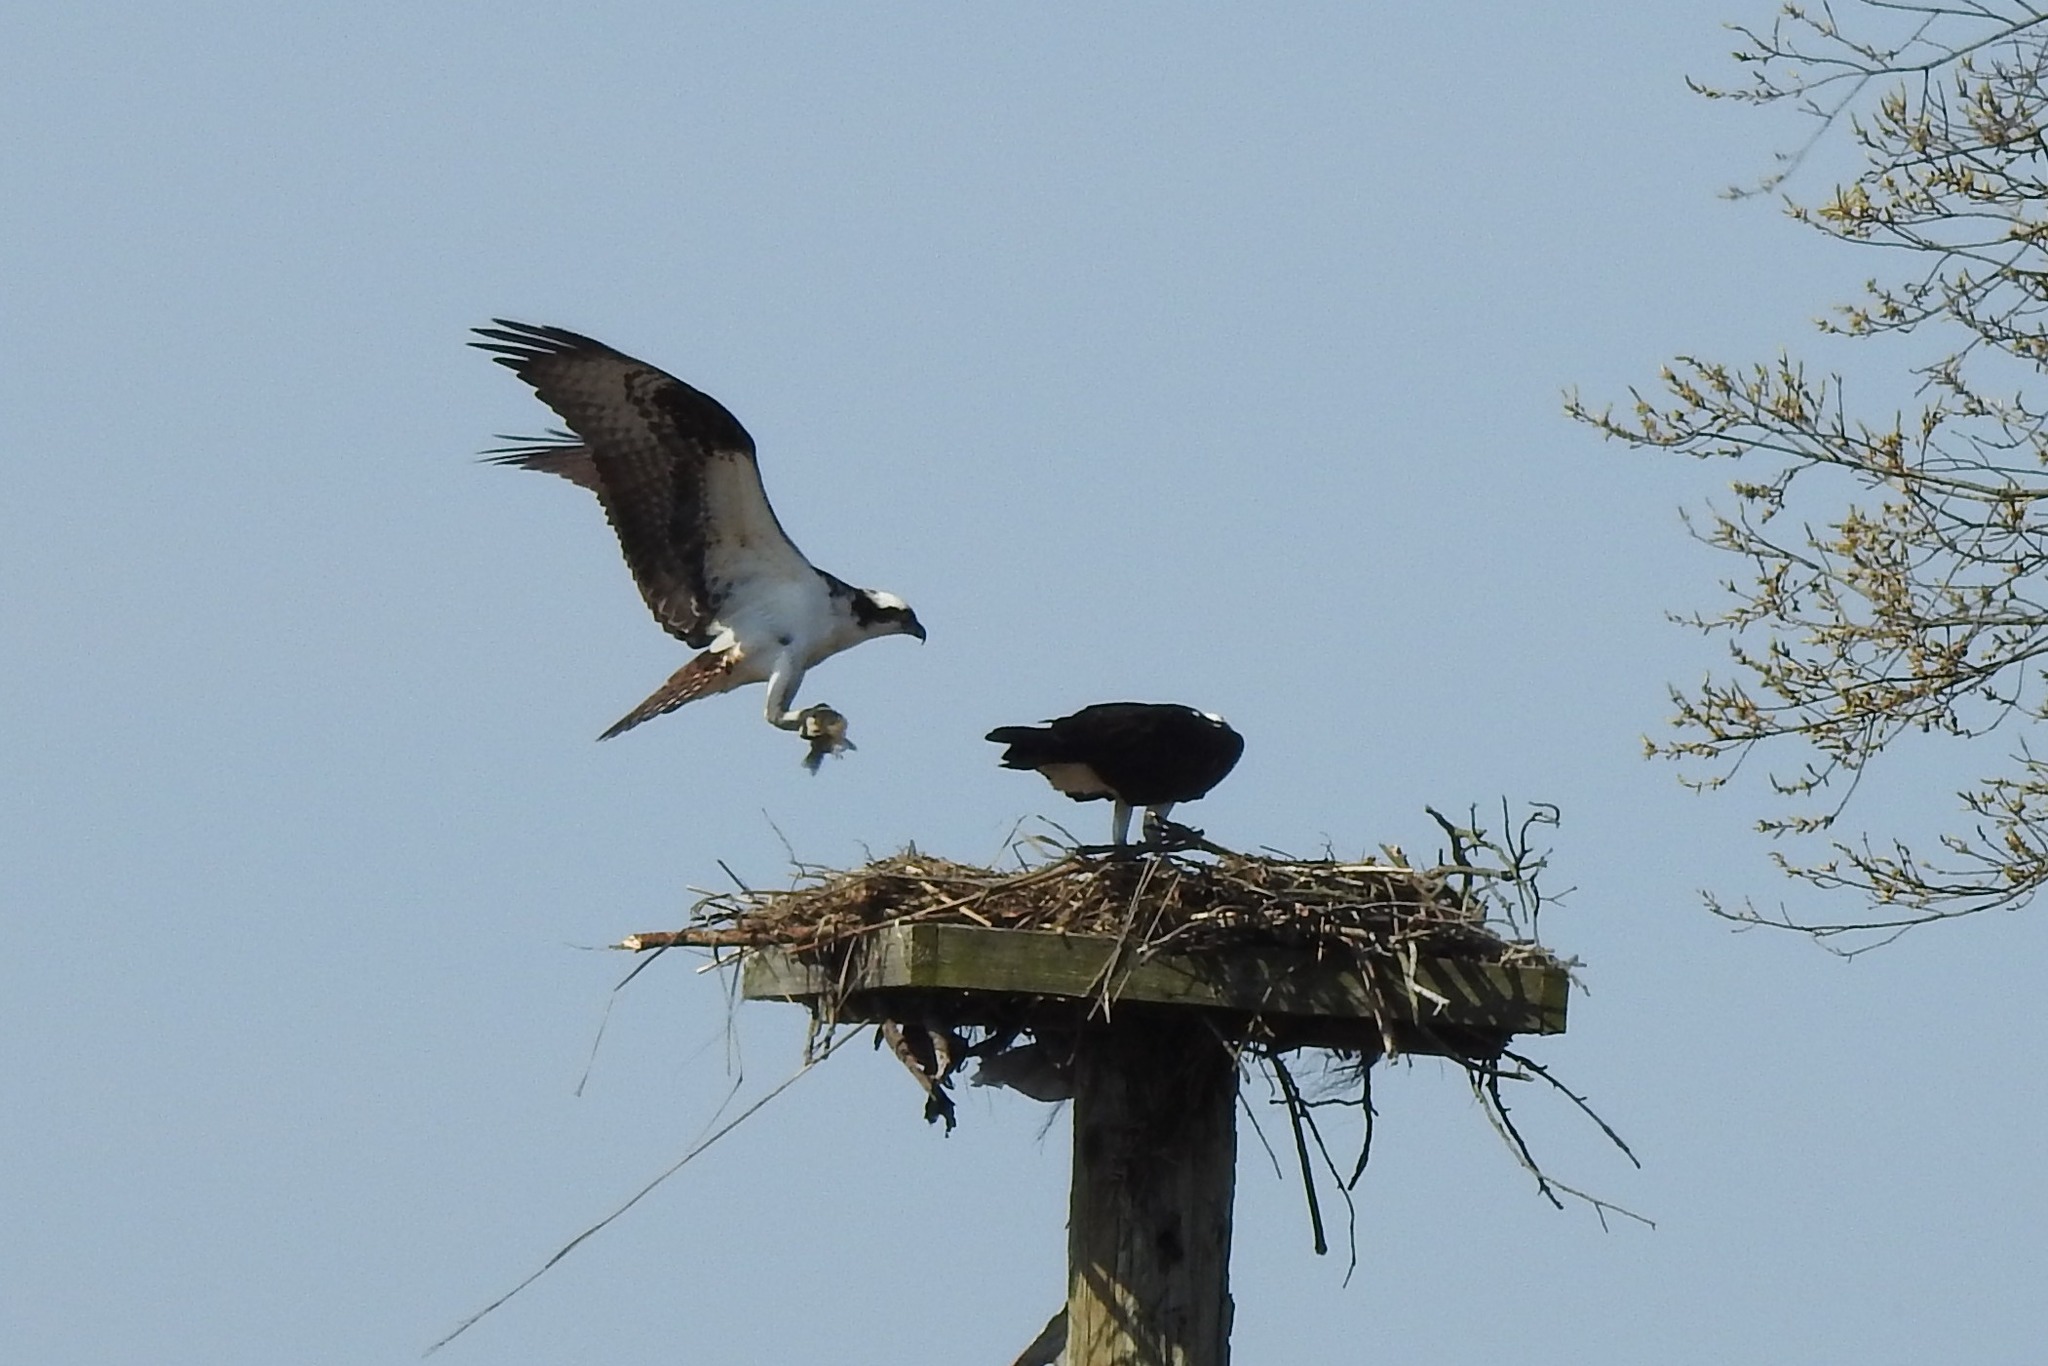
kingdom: Animalia
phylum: Chordata
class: Aves
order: Accipitriformes
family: Pandionidae
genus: Pandion
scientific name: Pandion haliaetus
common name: Osprey
